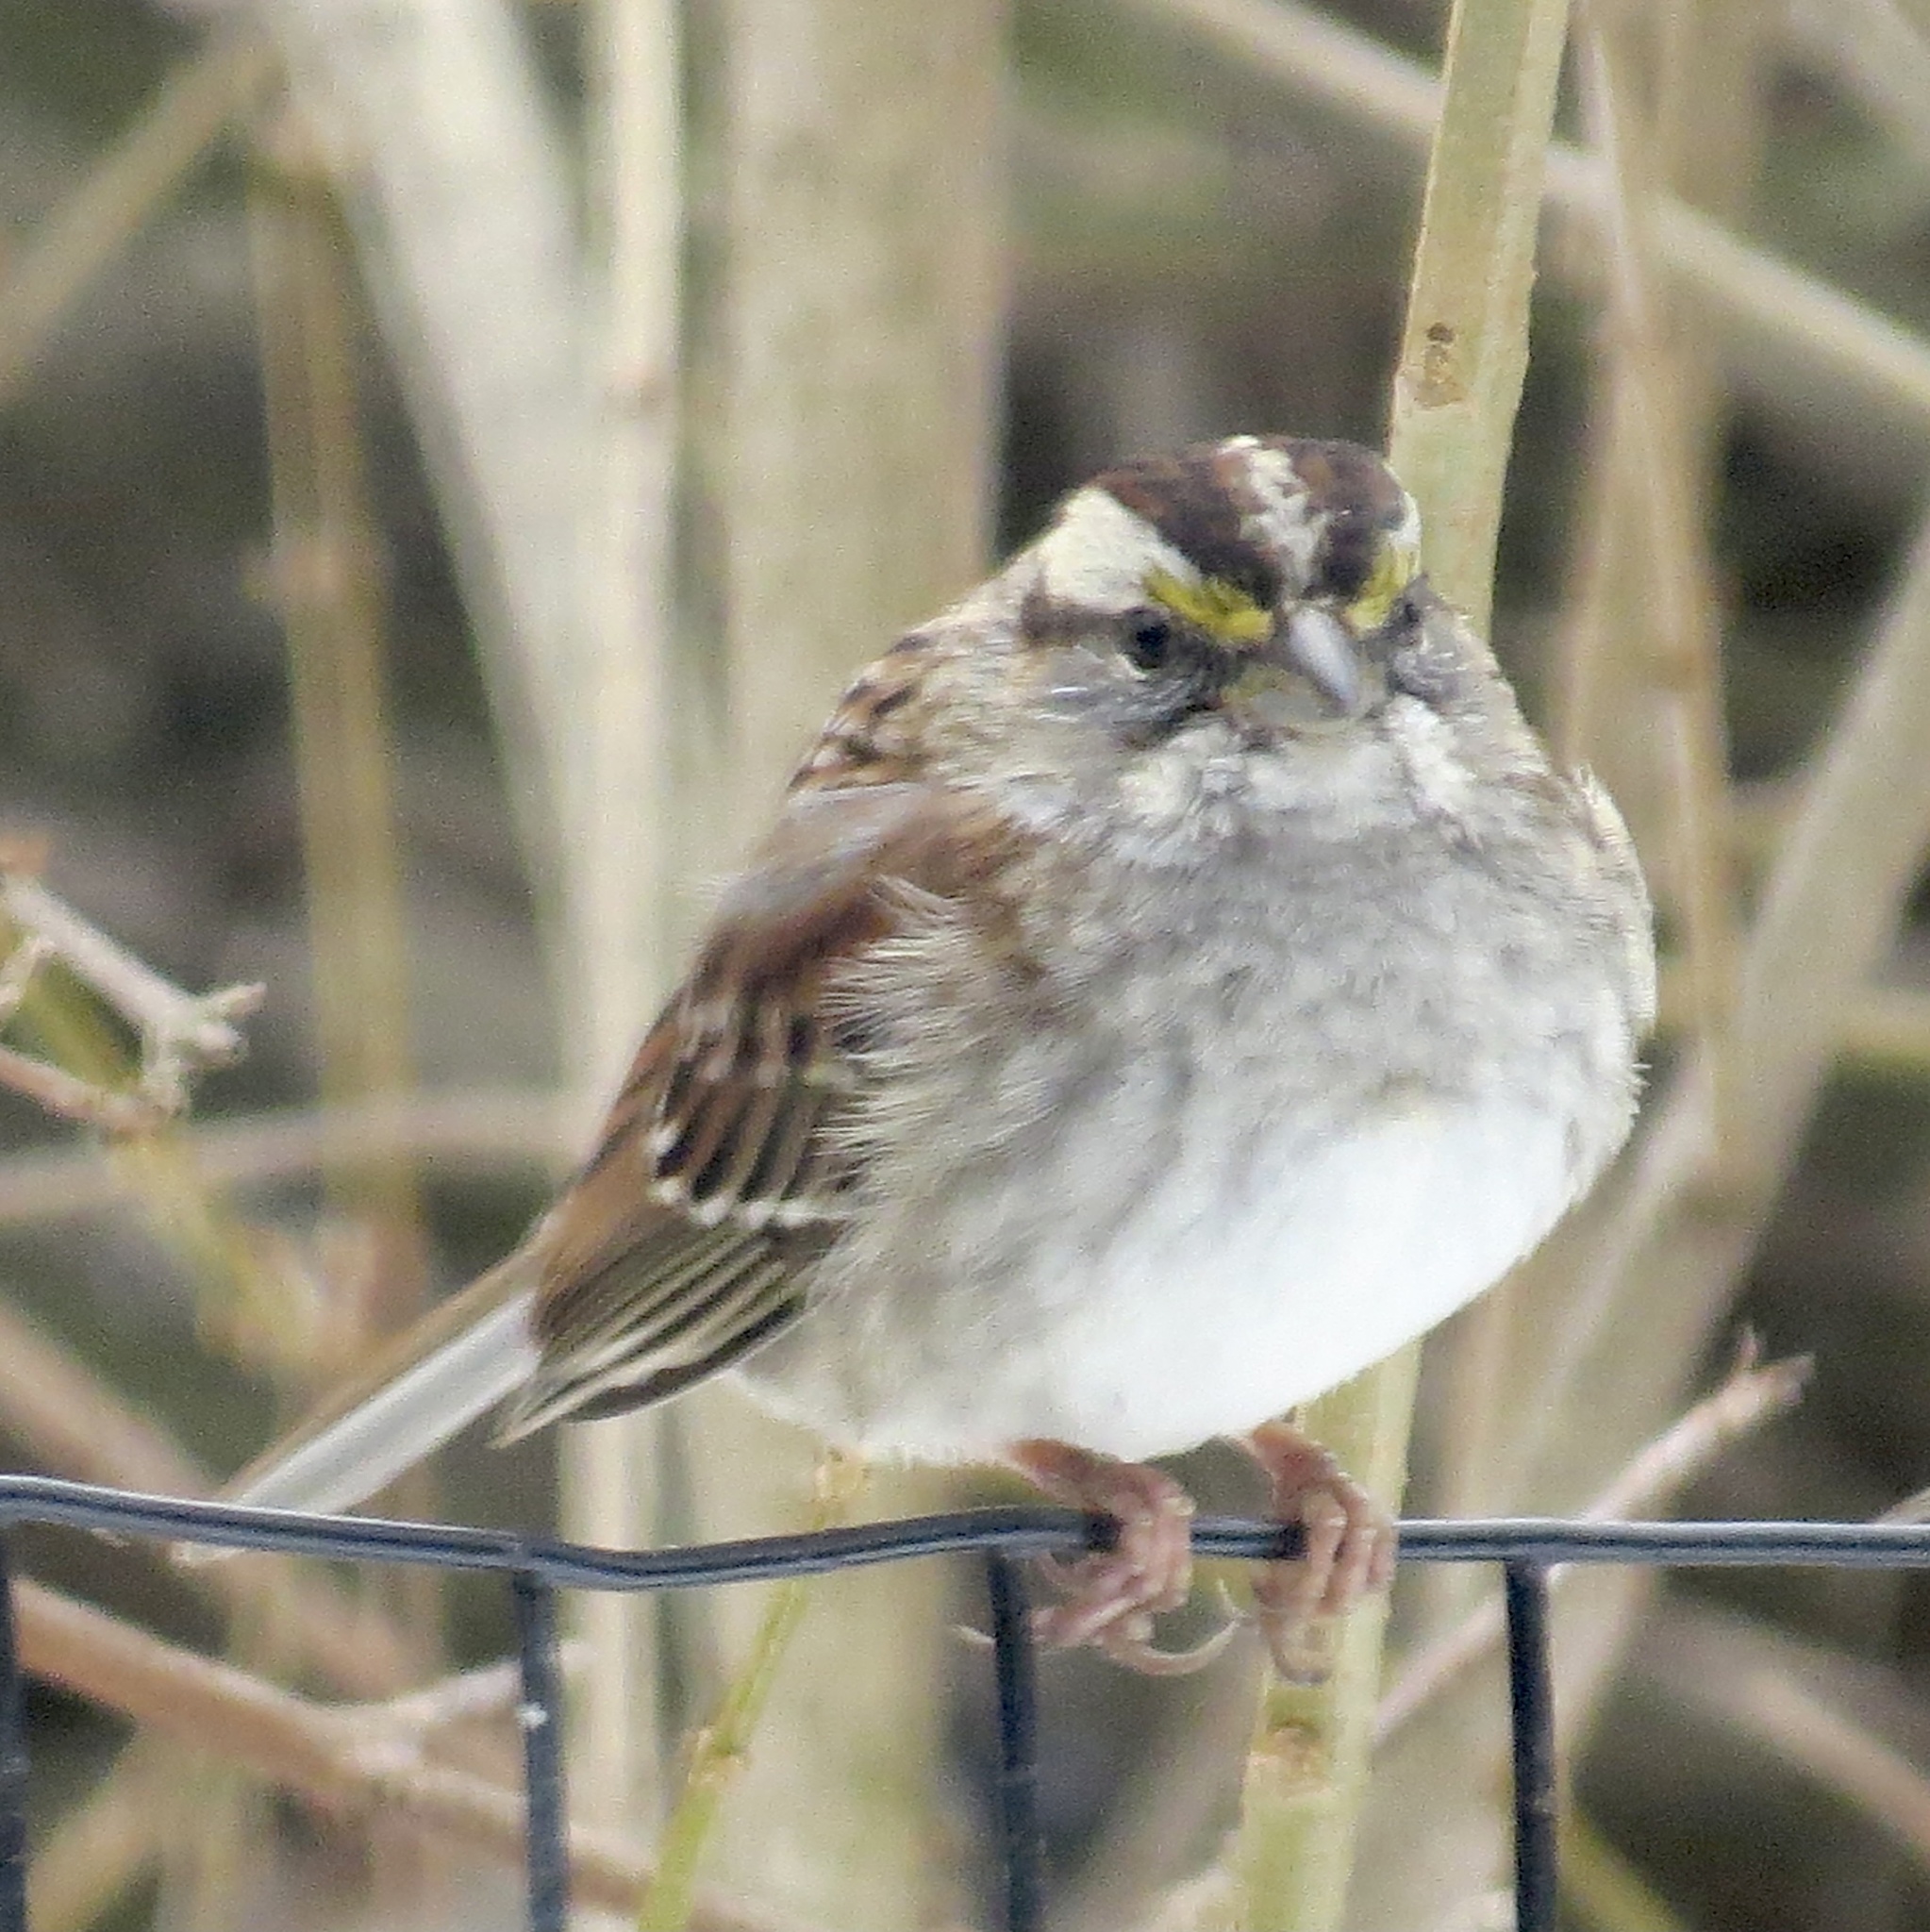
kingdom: Animalia
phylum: Chordata
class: Aves
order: Passeriformes
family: Passerellidae
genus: Zonotrichia
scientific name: Zonotrichia albicollis
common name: White-throated sparrow
